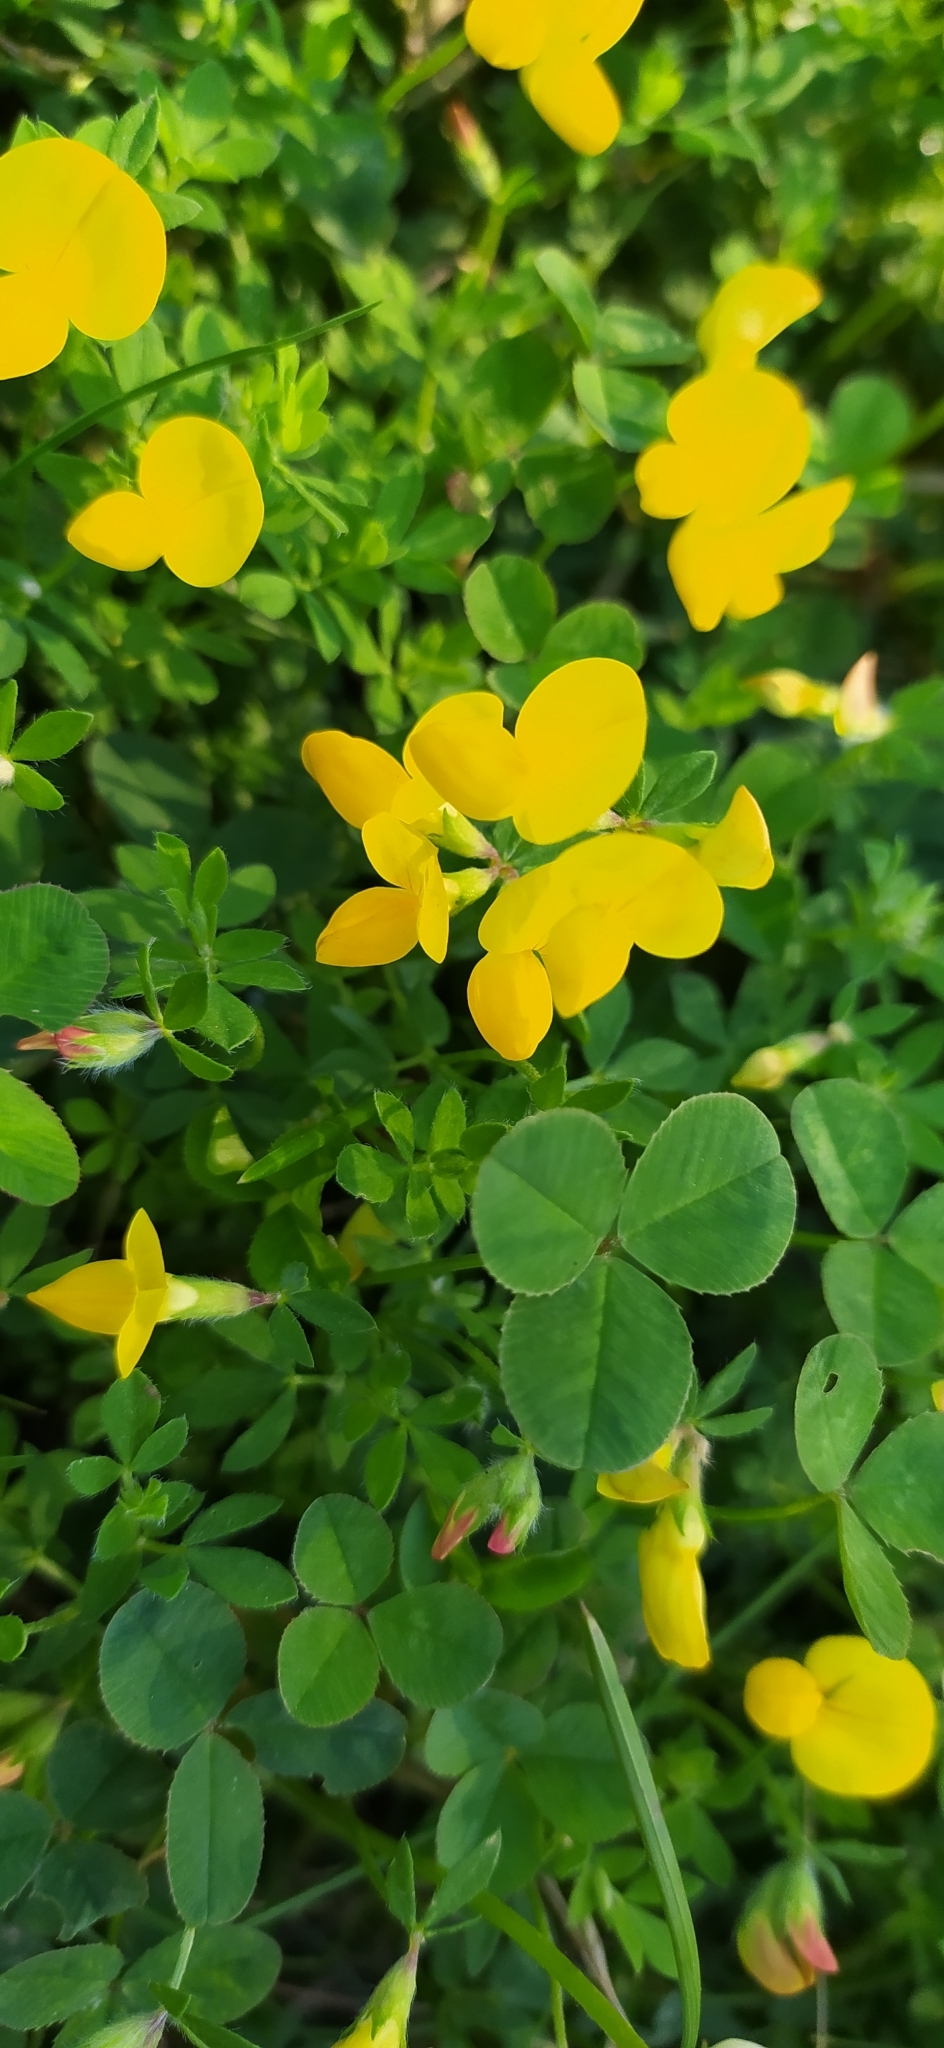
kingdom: Plantae
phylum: Tracheophyta
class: Magnoliopsida
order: Fabales
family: Fabaceae
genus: Lotus
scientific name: Lotus corniculatus
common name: Common bird's-foot-trefoil
